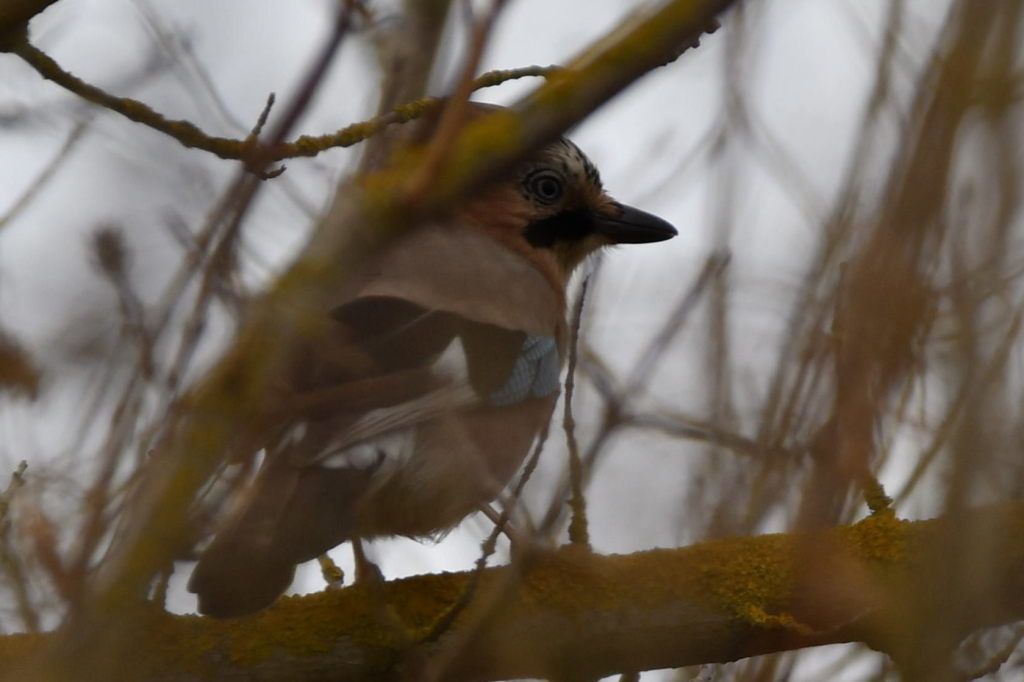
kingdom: Animalia
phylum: Chordata
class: Aves
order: Passeriformes
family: Corvidae
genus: Garrulus
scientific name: Garrulus glandarius
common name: Eurasian jay
